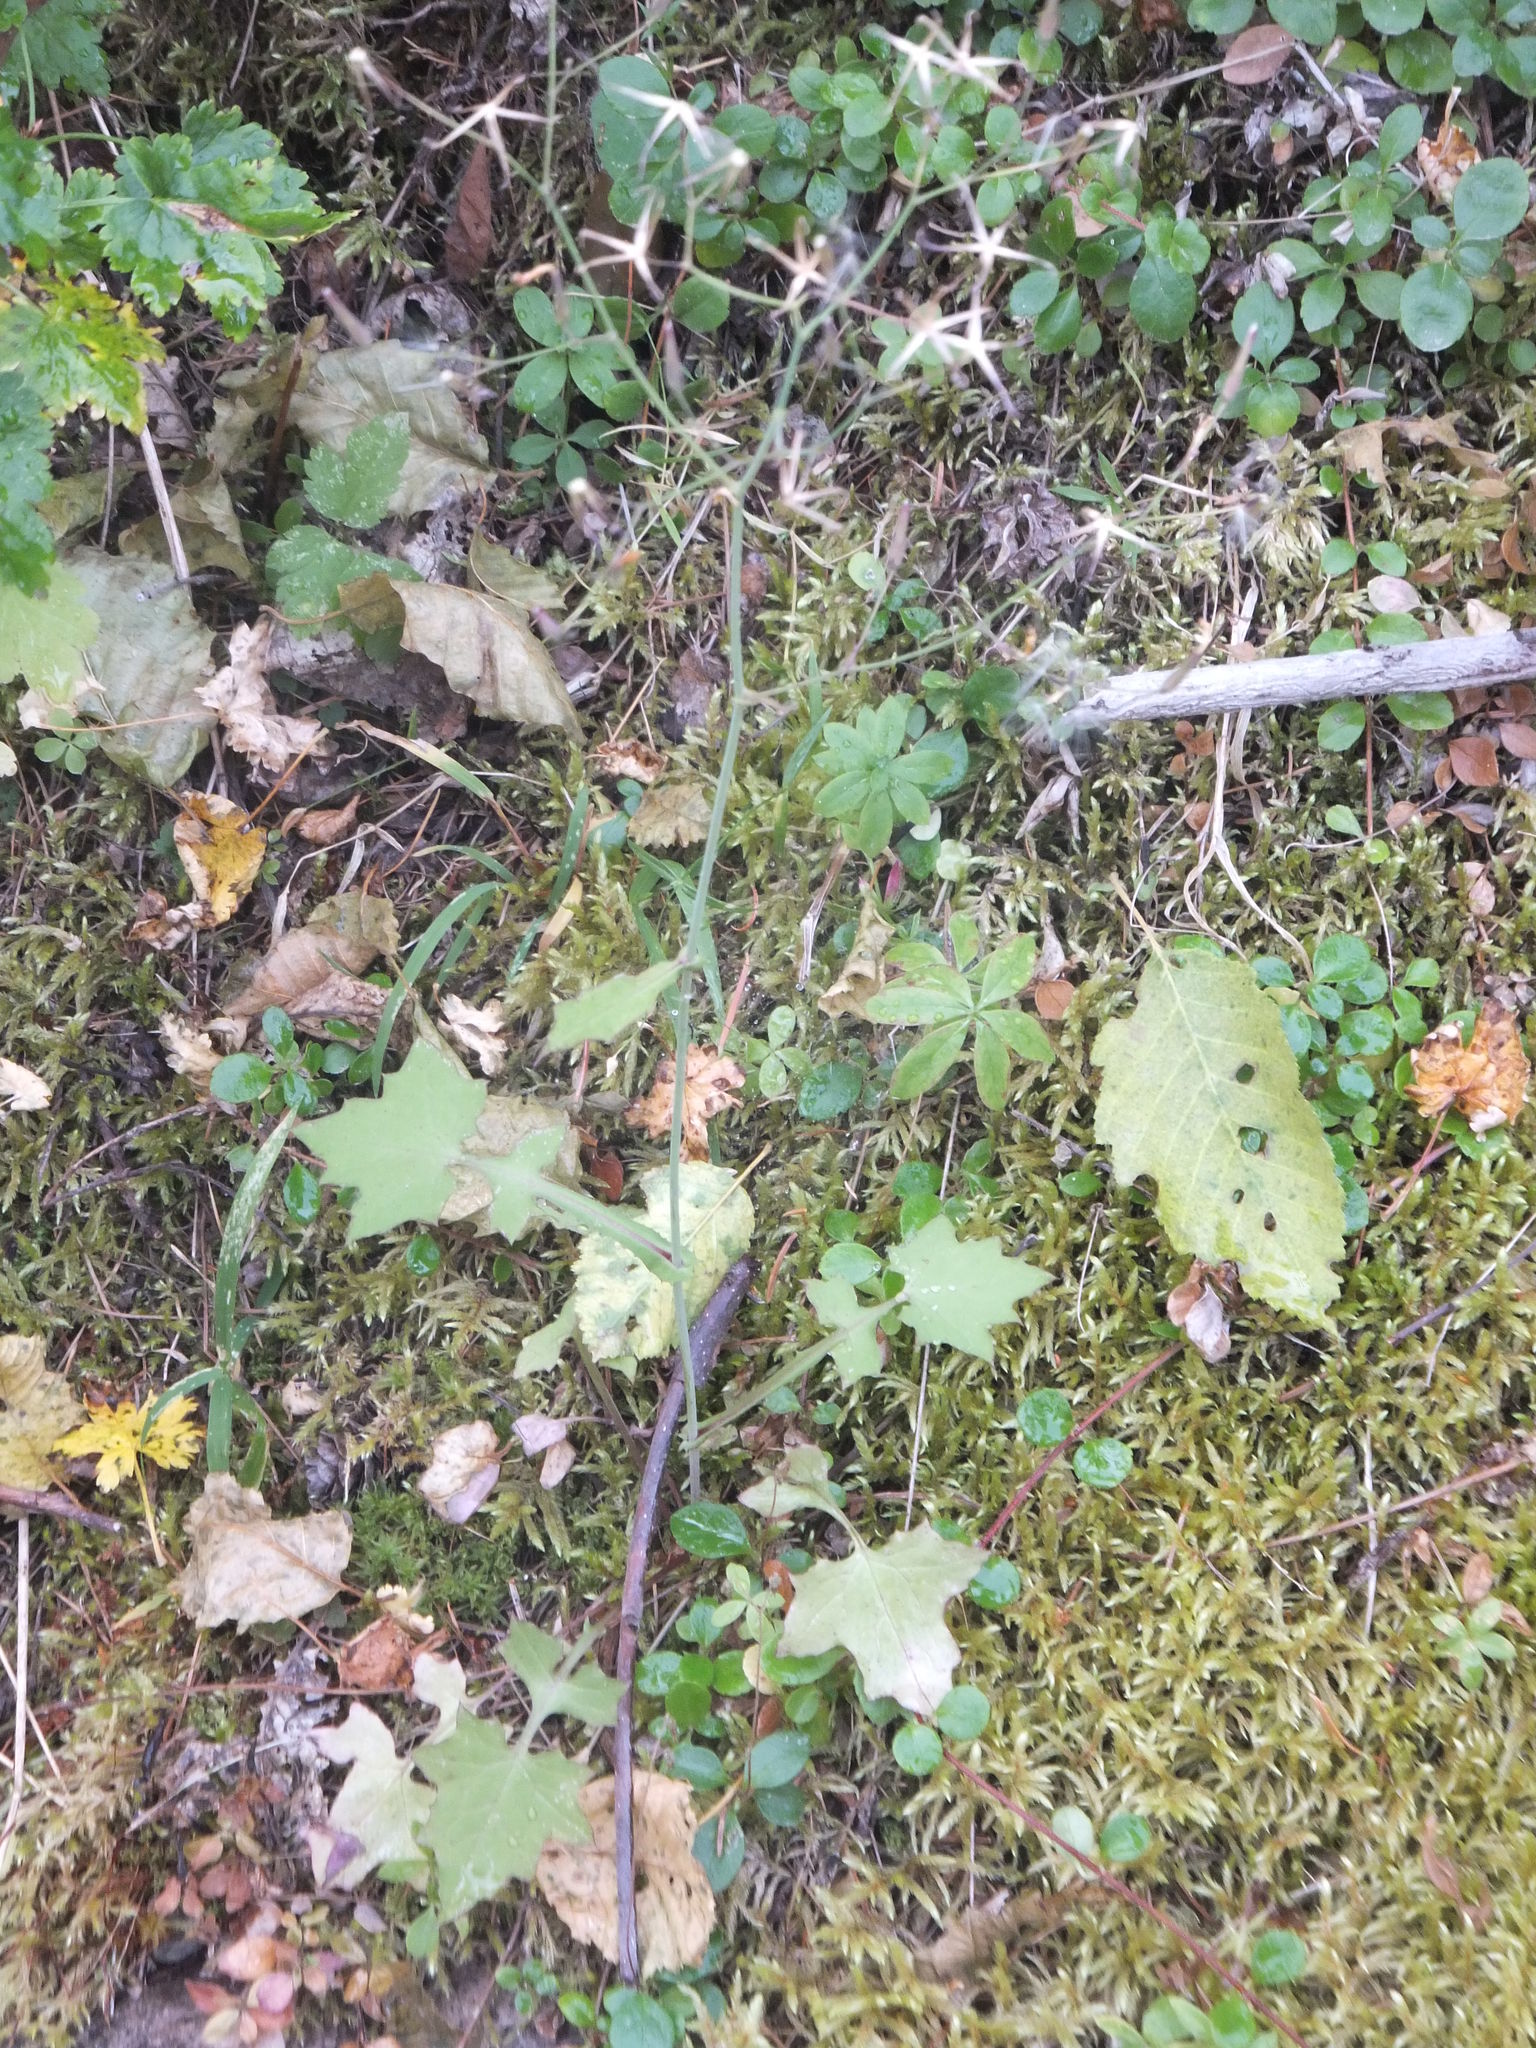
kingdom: Plantae
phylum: Tracheophyta
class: Magnoliopsida
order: Asterales
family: Asteraceae
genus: Mycelis
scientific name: Mycelis muralis
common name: Wall lettuce
